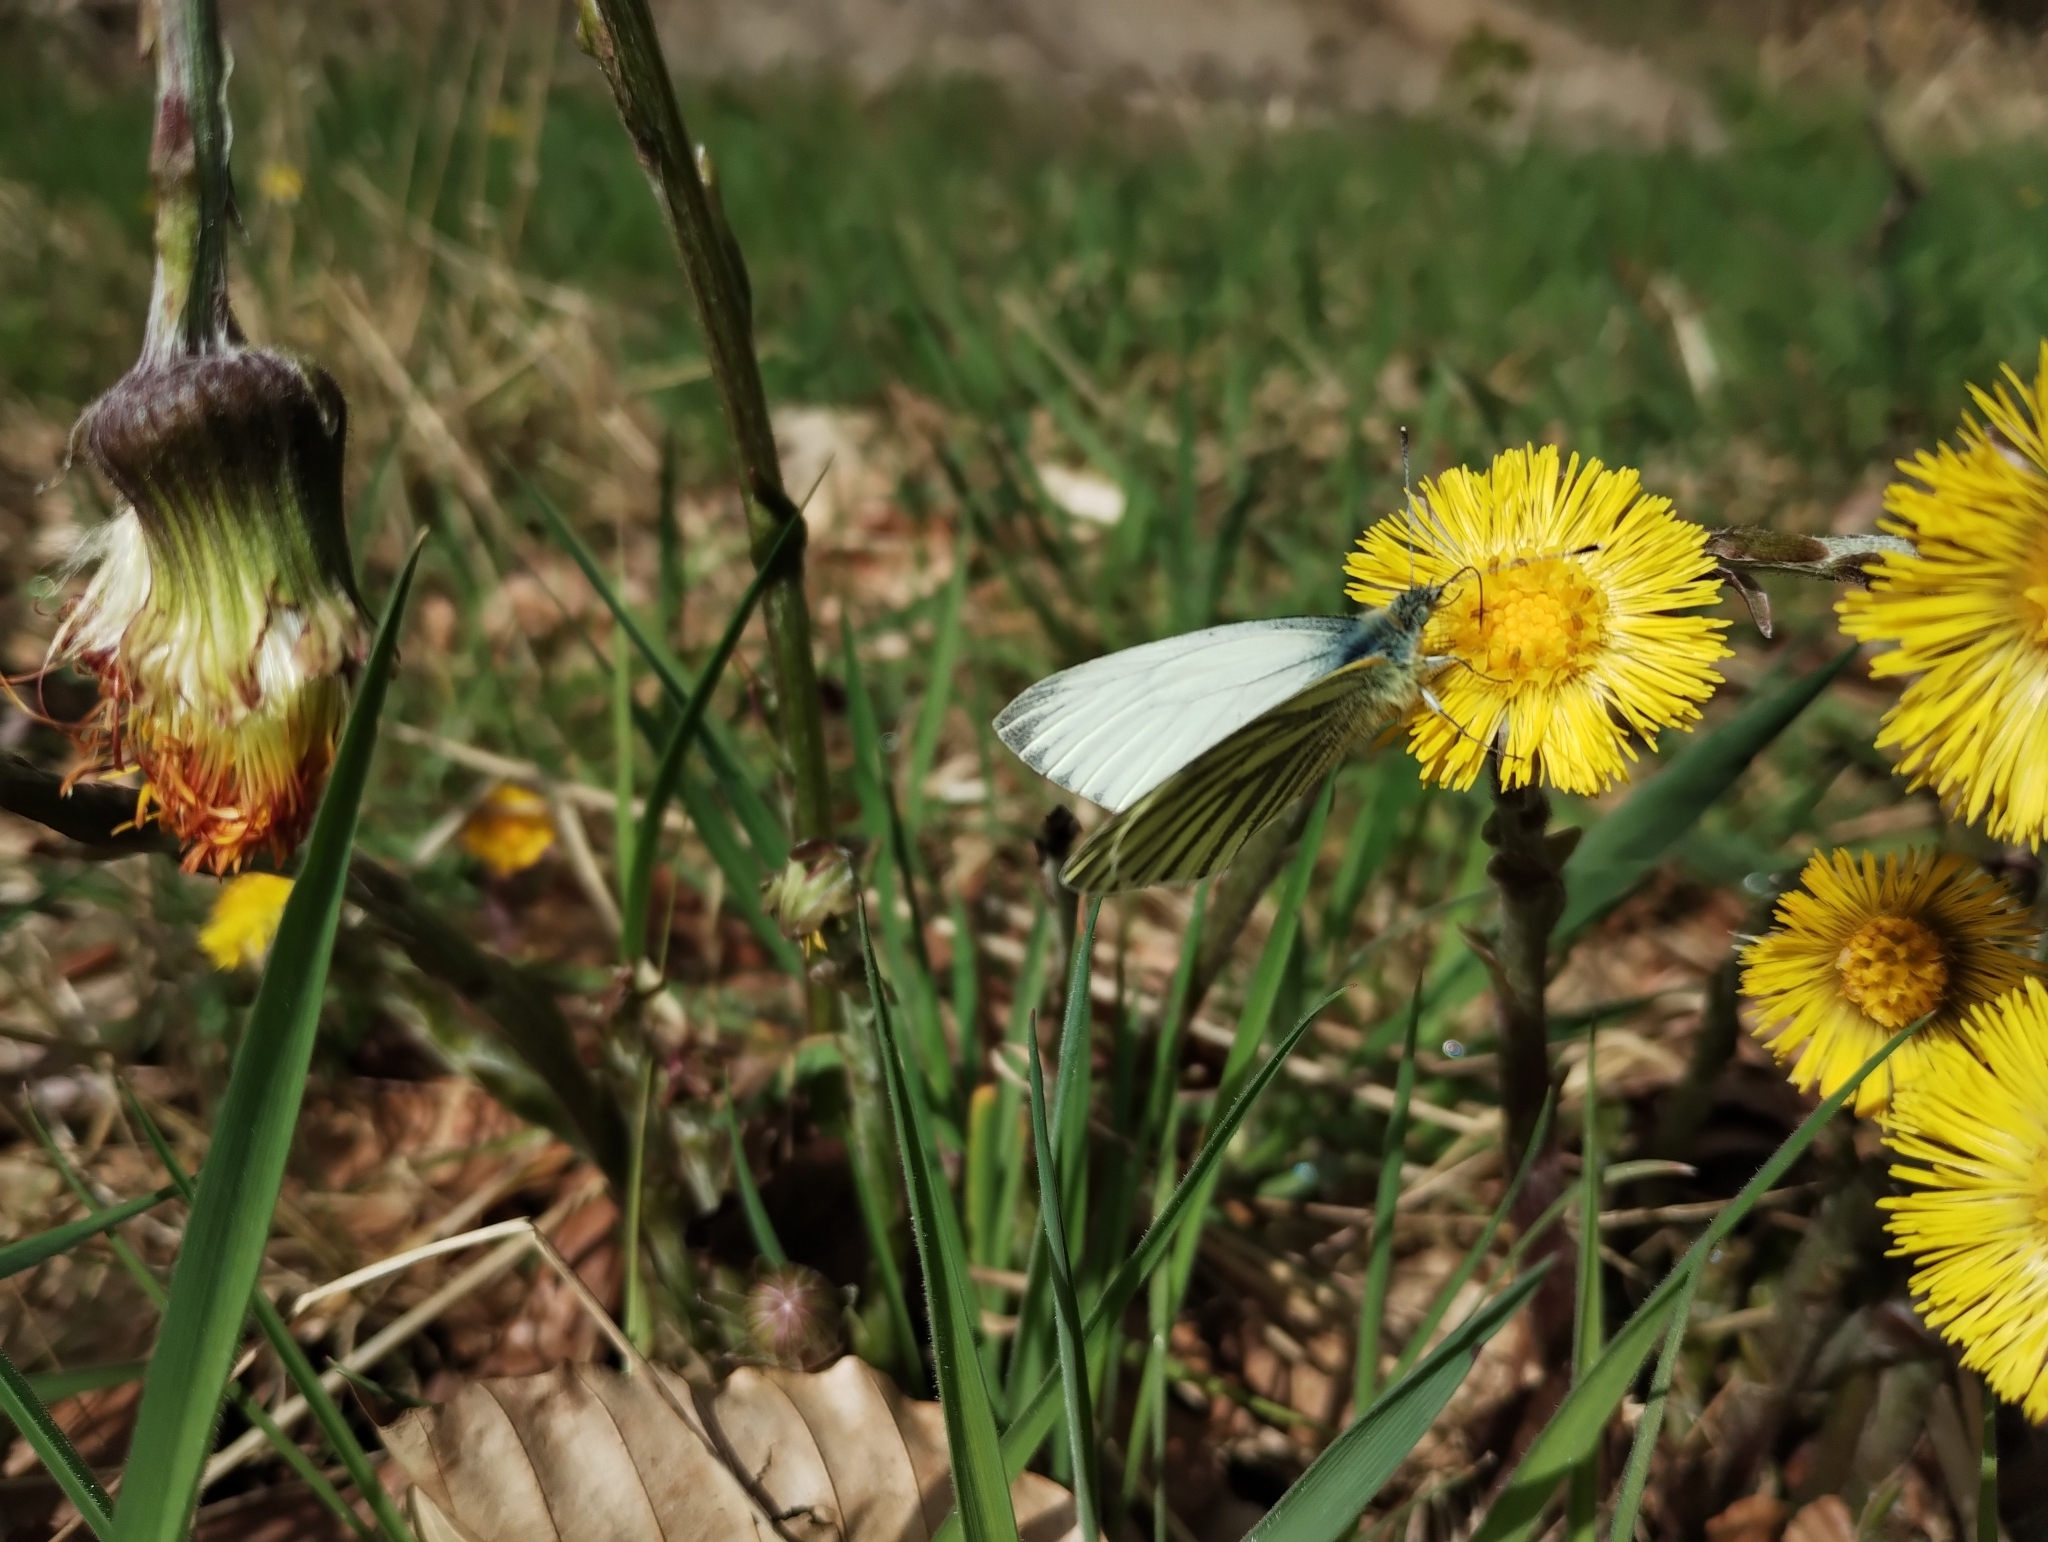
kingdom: Animalia
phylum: Arthropoda
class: Insecta
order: Lepidoptera
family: Pieridae
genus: Pieris
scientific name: Pieris napi
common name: Green-veined white
